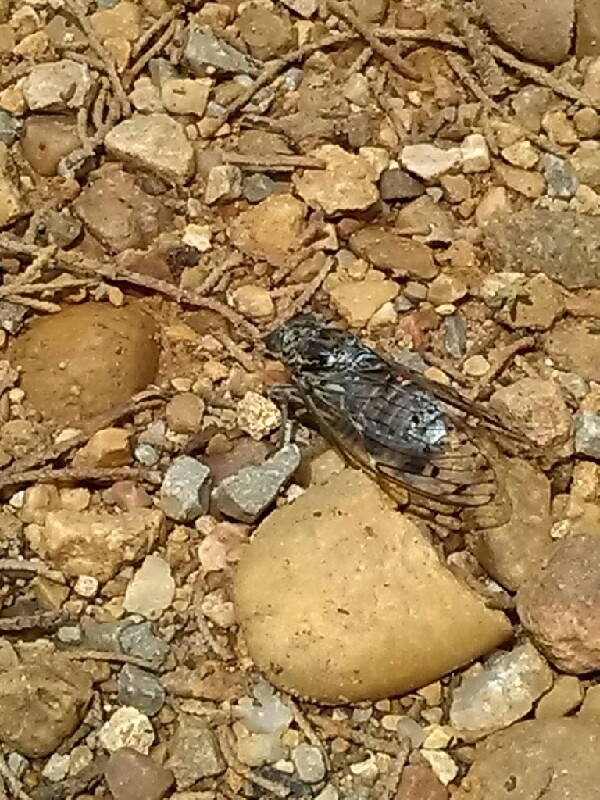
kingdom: Animalia
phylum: Arthropoda
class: Insecta
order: Hemiptera
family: Cicadidae
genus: Cicada
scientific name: Cicada orni
